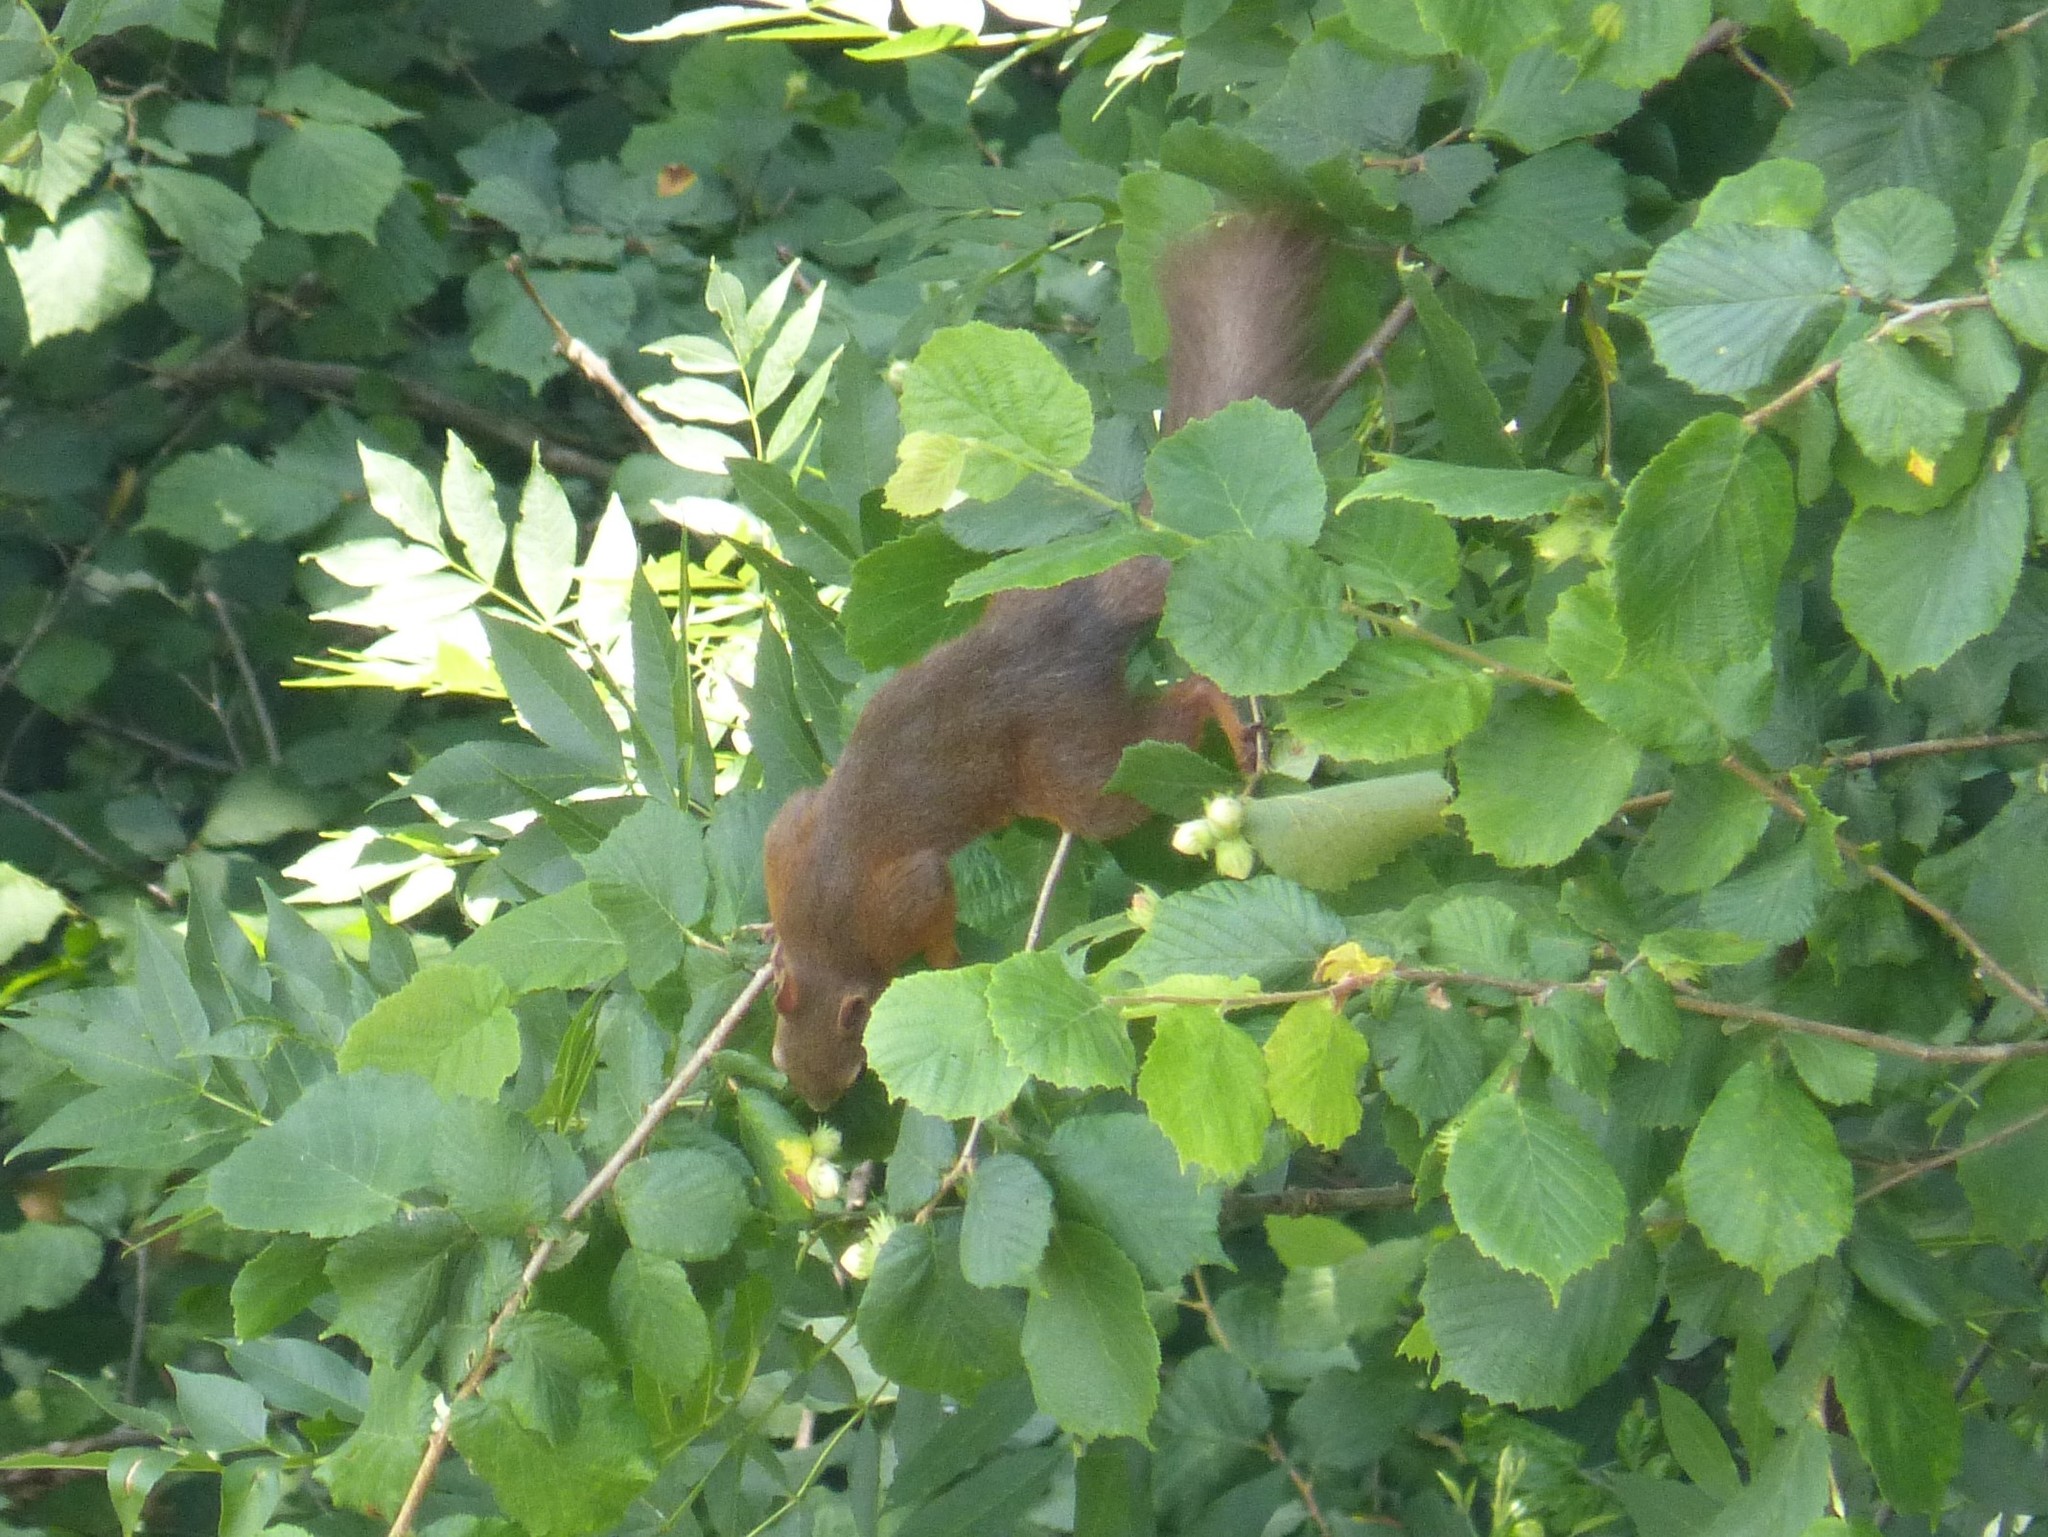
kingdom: Animalia
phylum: Chordata
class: Mammalia
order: Rodentia
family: Sciuridae
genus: Sciurus
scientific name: Sciurus vulgaris
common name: Eurasian red squirrel
